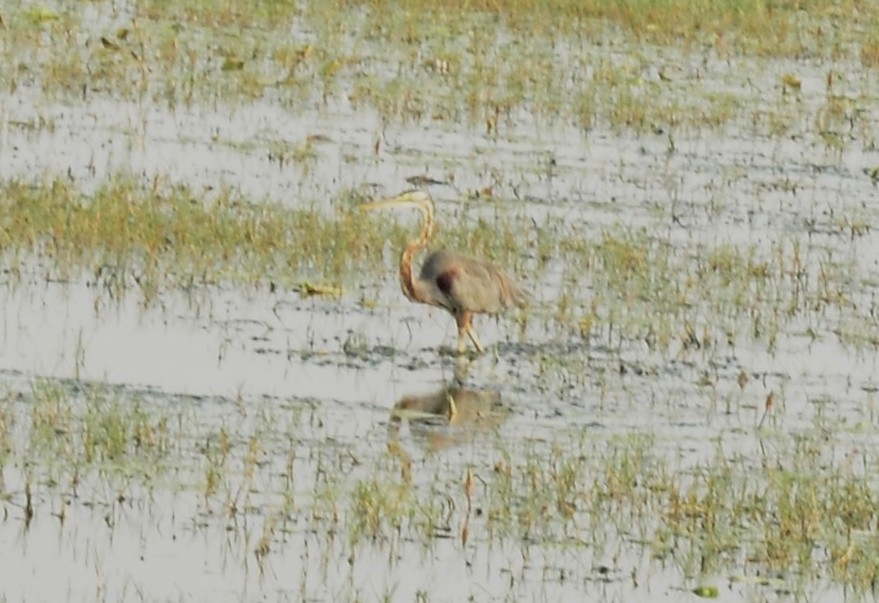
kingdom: Animalia
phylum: Chordata
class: Aves
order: Pelecaniformes
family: Ardeidae
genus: Ardea
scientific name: Ardea purpurea
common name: Purple heron
